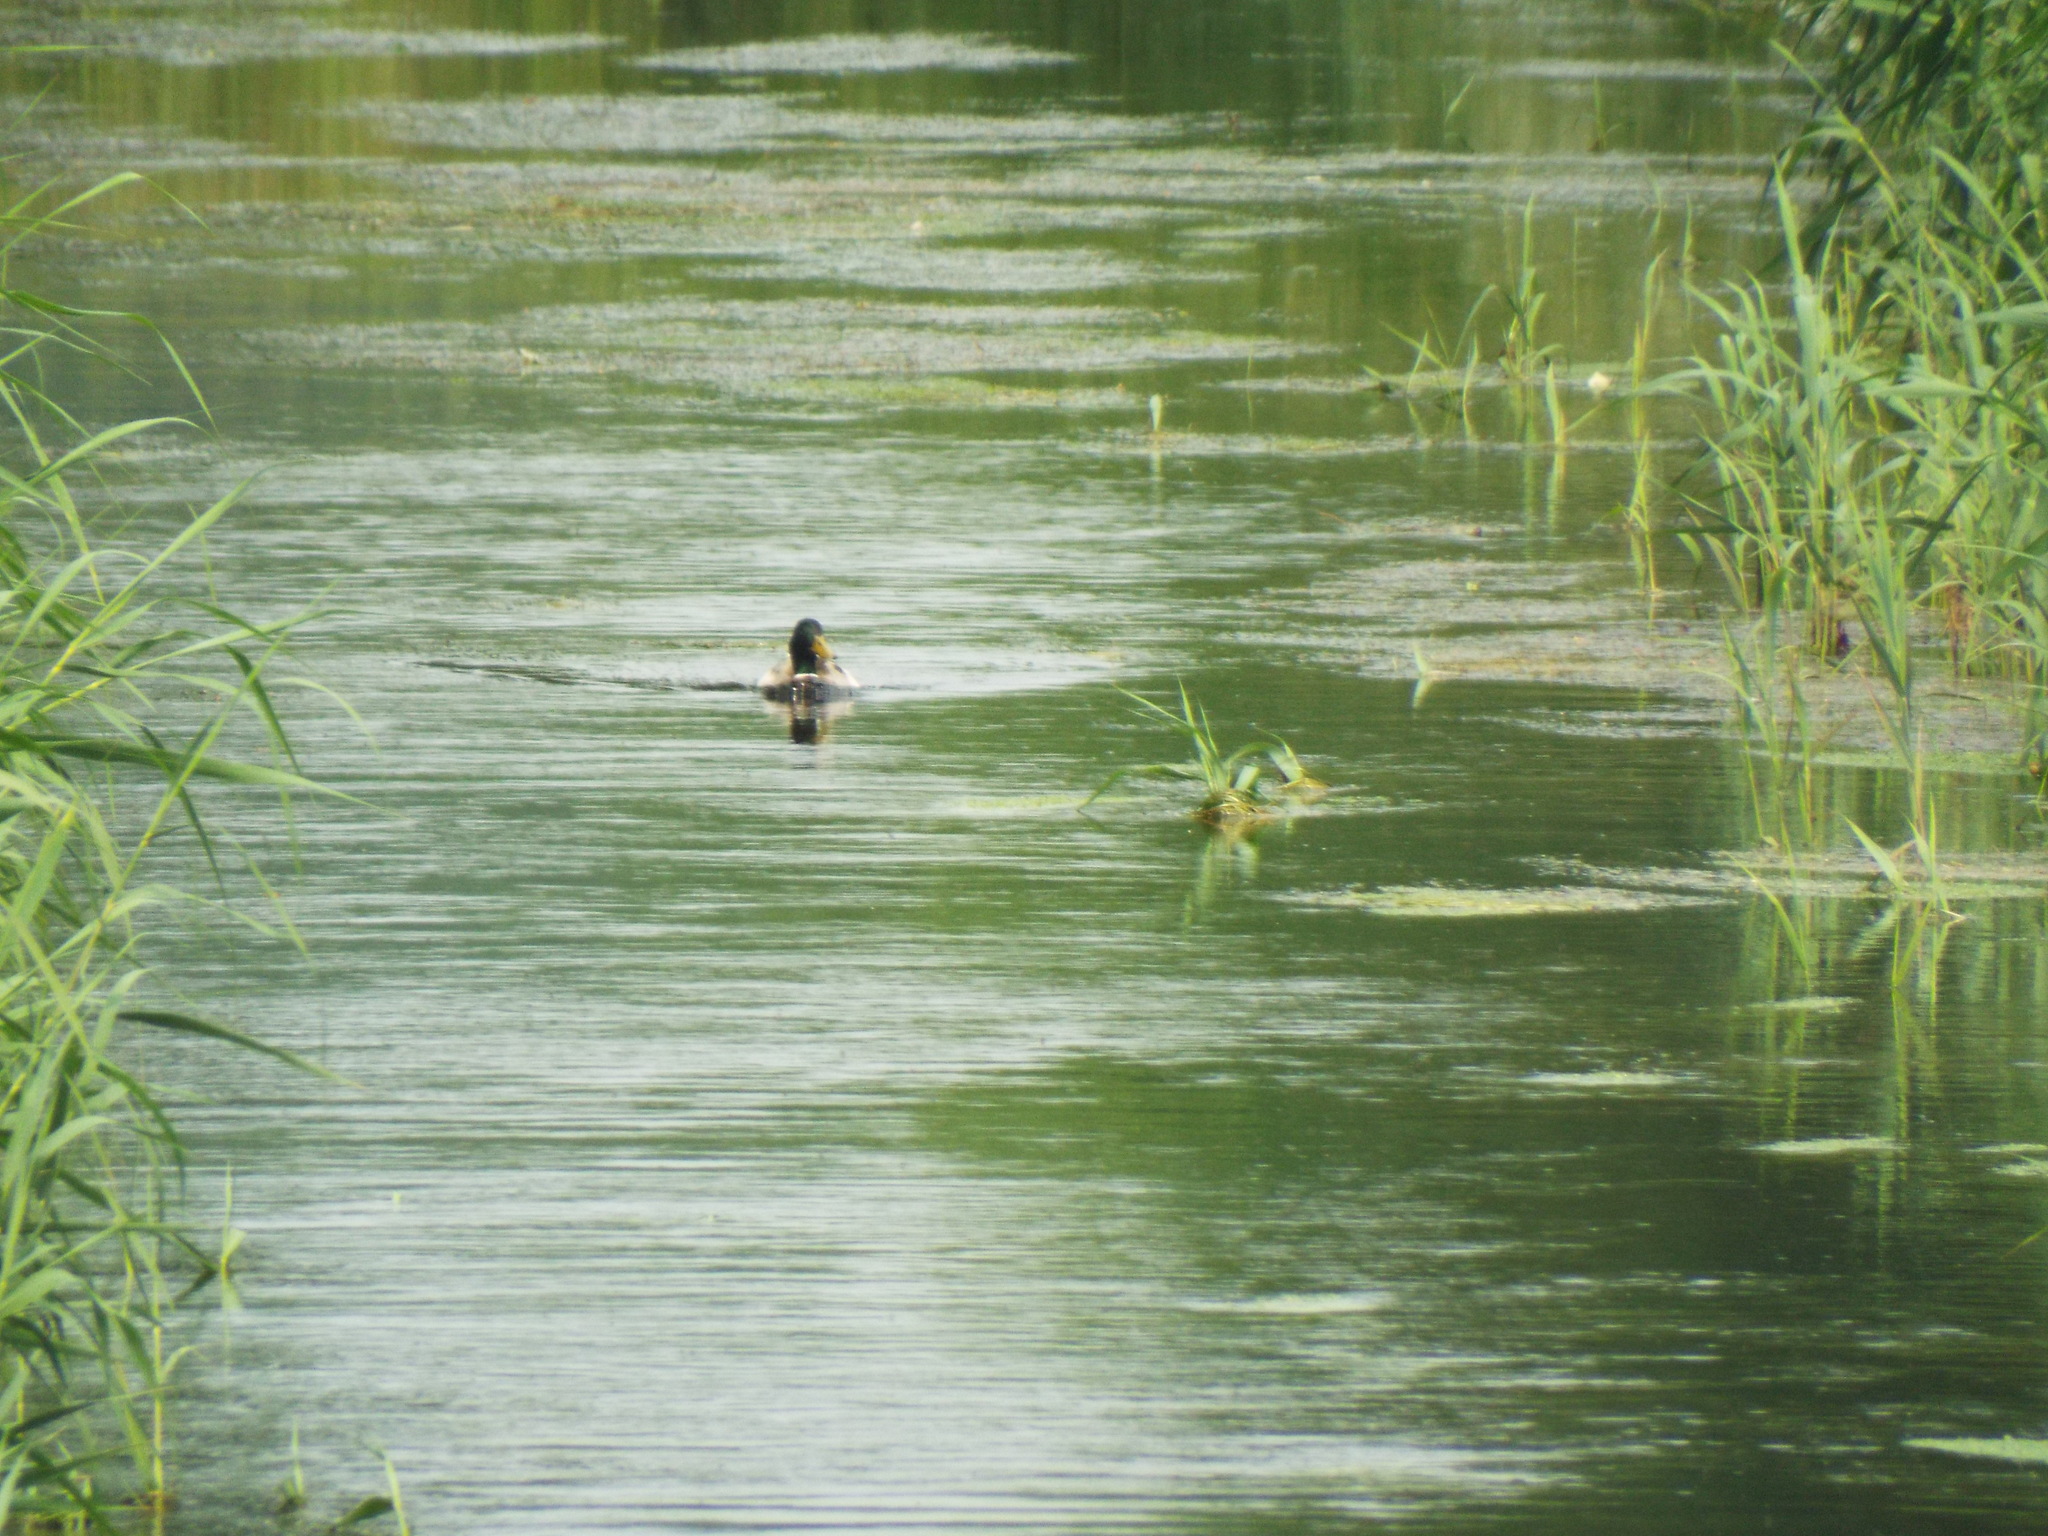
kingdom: Animalia
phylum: Chordata
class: Aves
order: Anseriformes
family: Anatidae
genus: Anas
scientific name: Anas platyrhynchos
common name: Mallard
